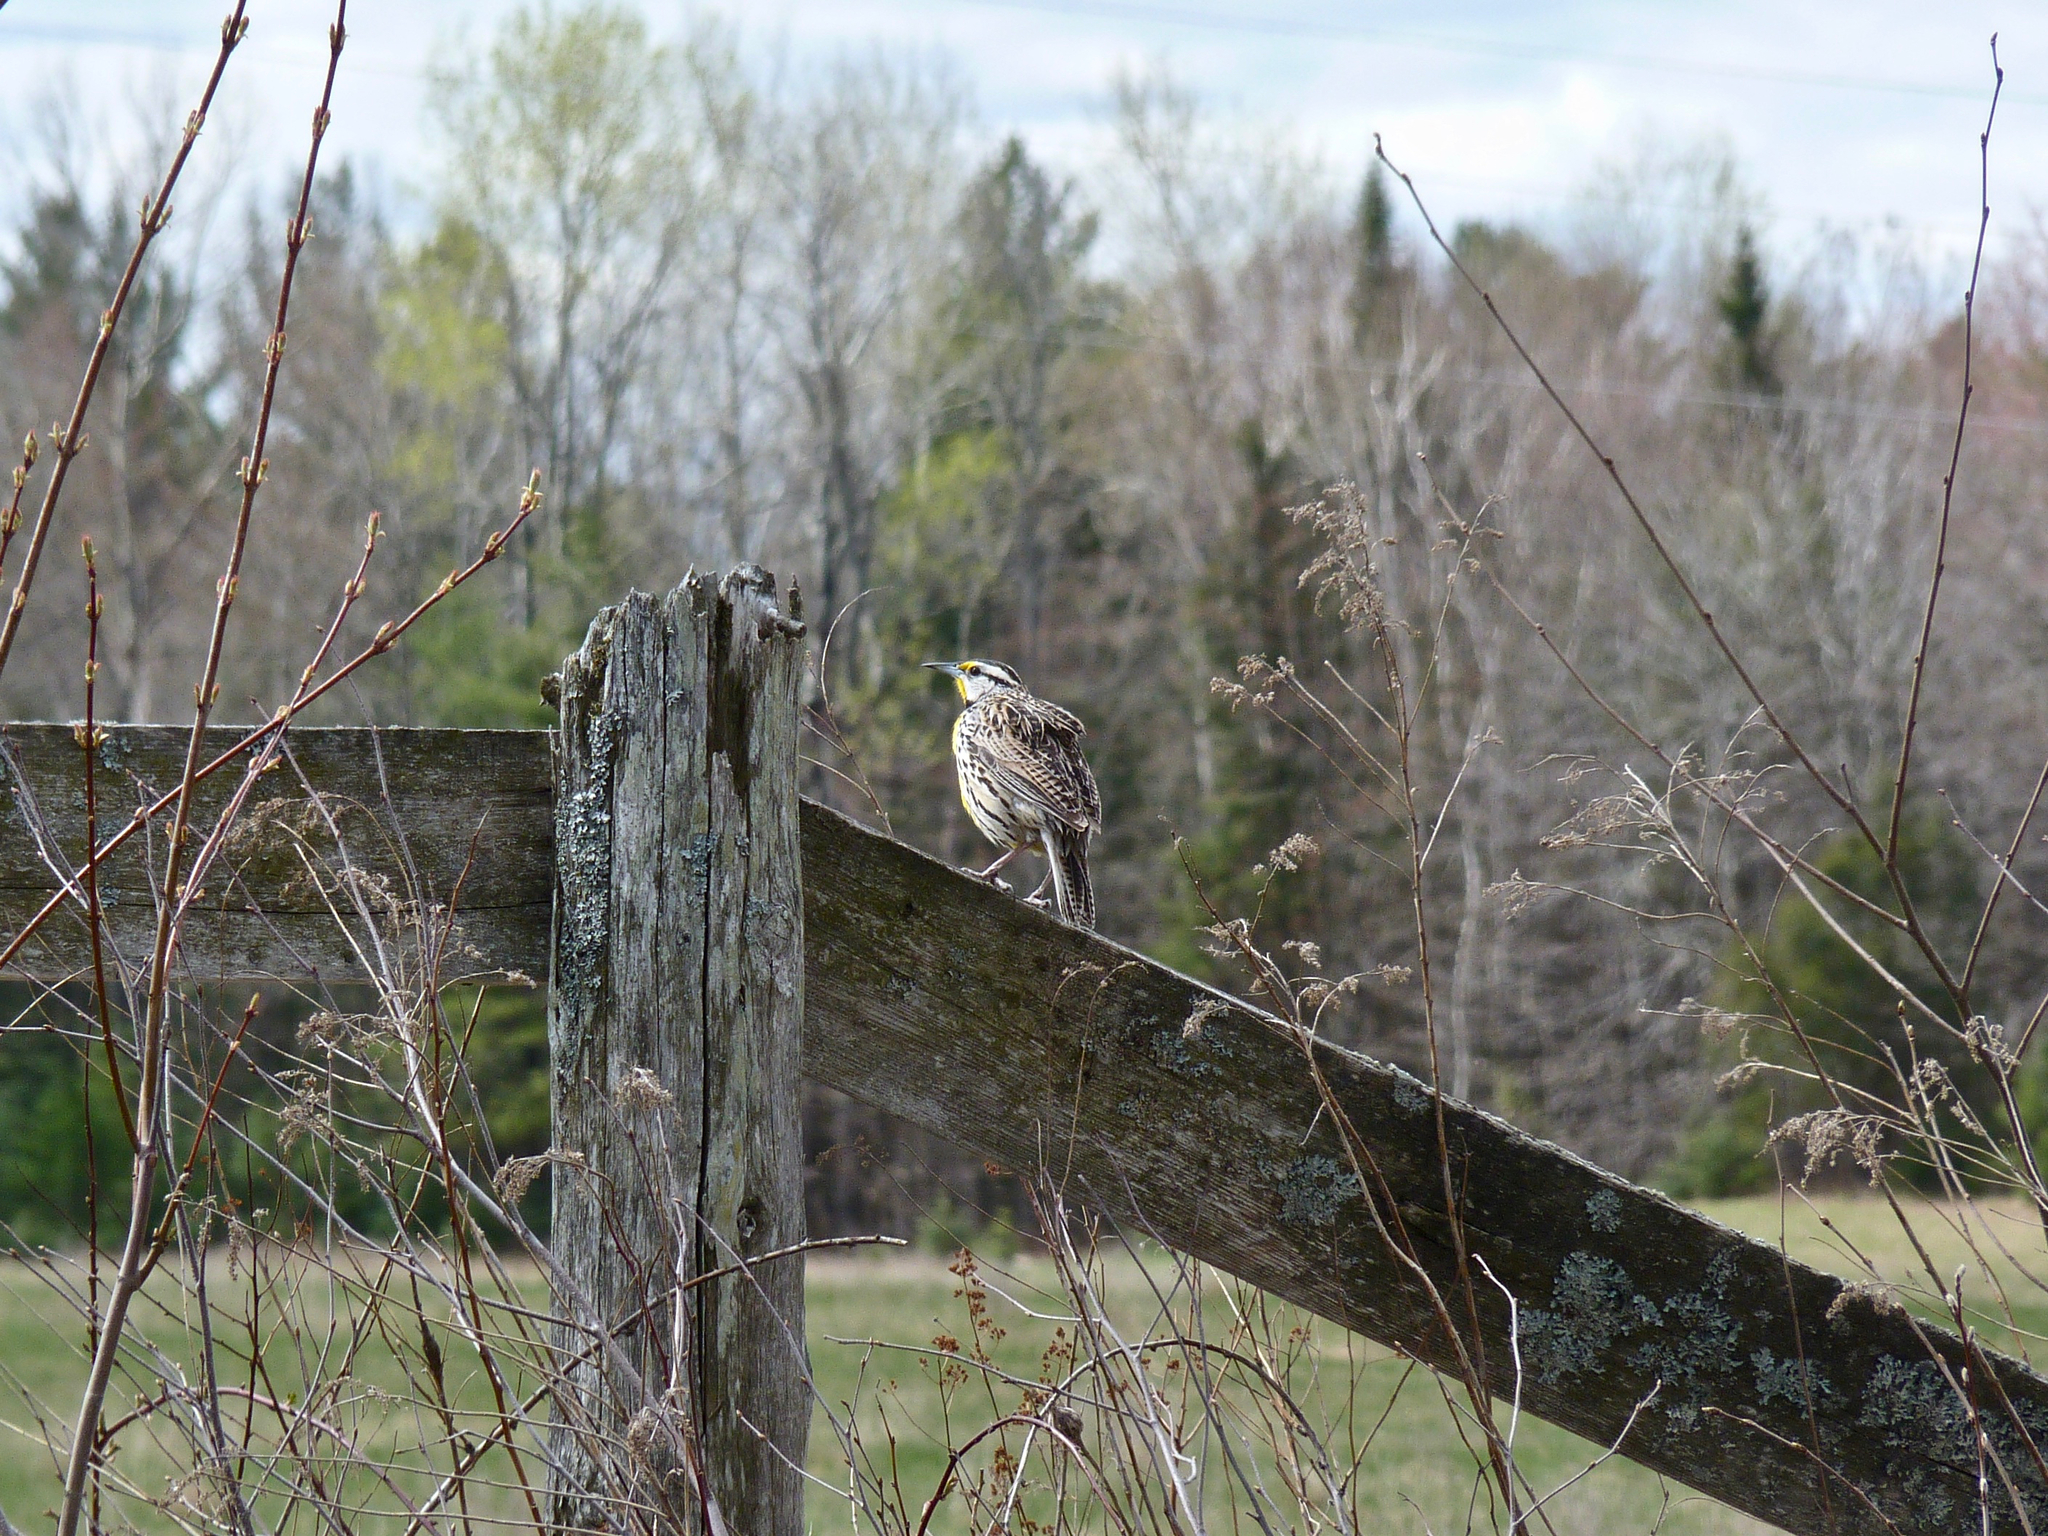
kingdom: Animalia
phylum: Chordata
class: Aves
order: Passeriformes
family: Icteridae
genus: Sturnella
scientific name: Sturnella magna
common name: Eastern meadowlark
